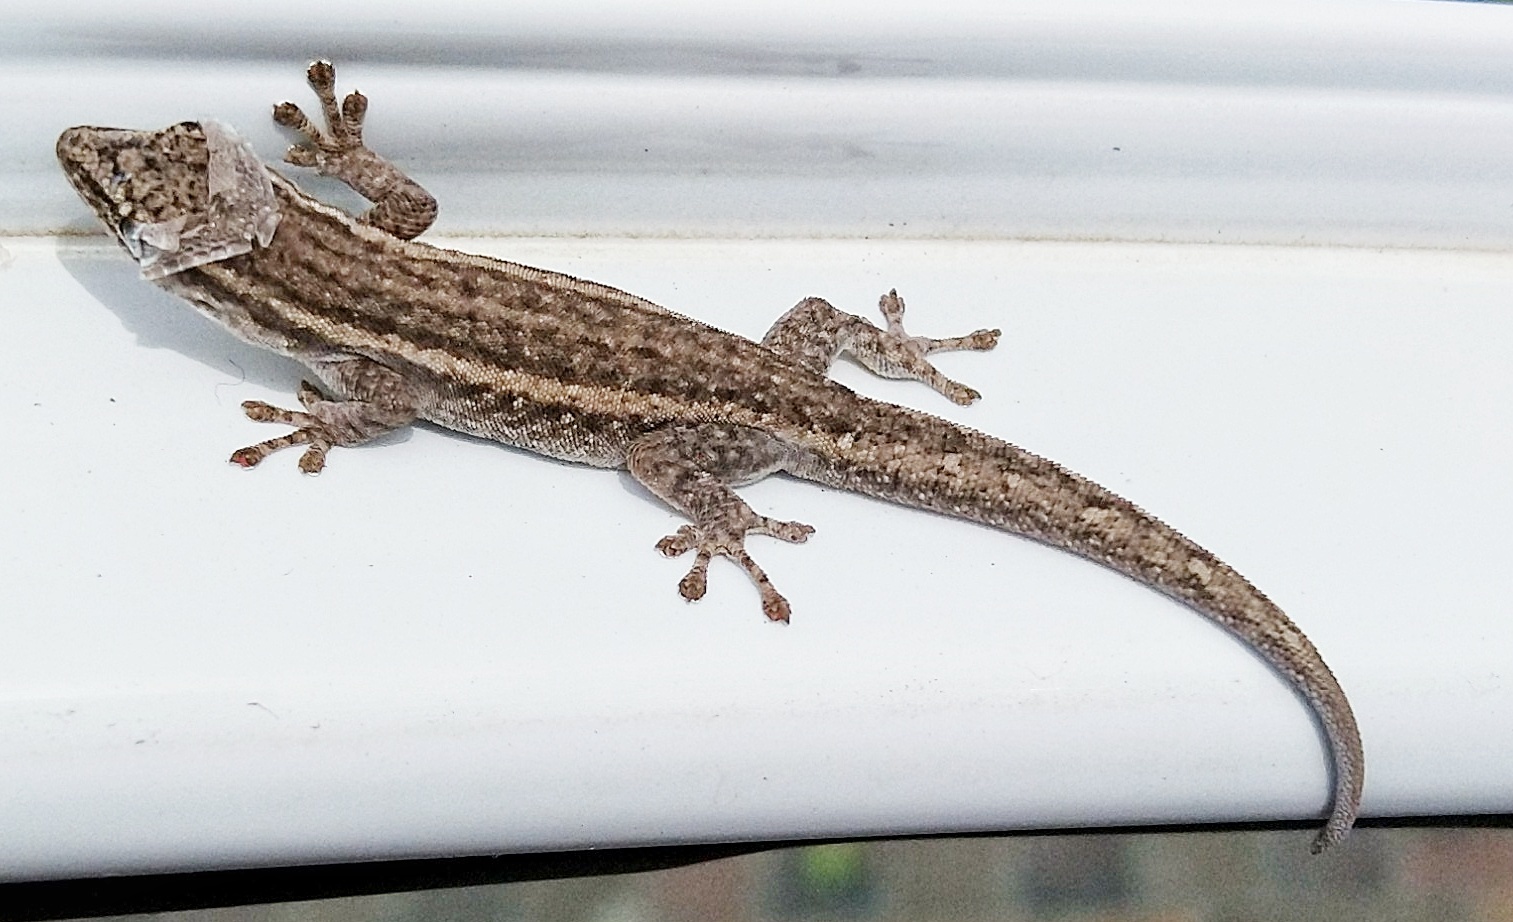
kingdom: Animalia
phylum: Chordata
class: Squamata
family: Gekkonidae
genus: Lygodactylus
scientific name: Lygodactylus capensis
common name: Cape dwarf gecko
